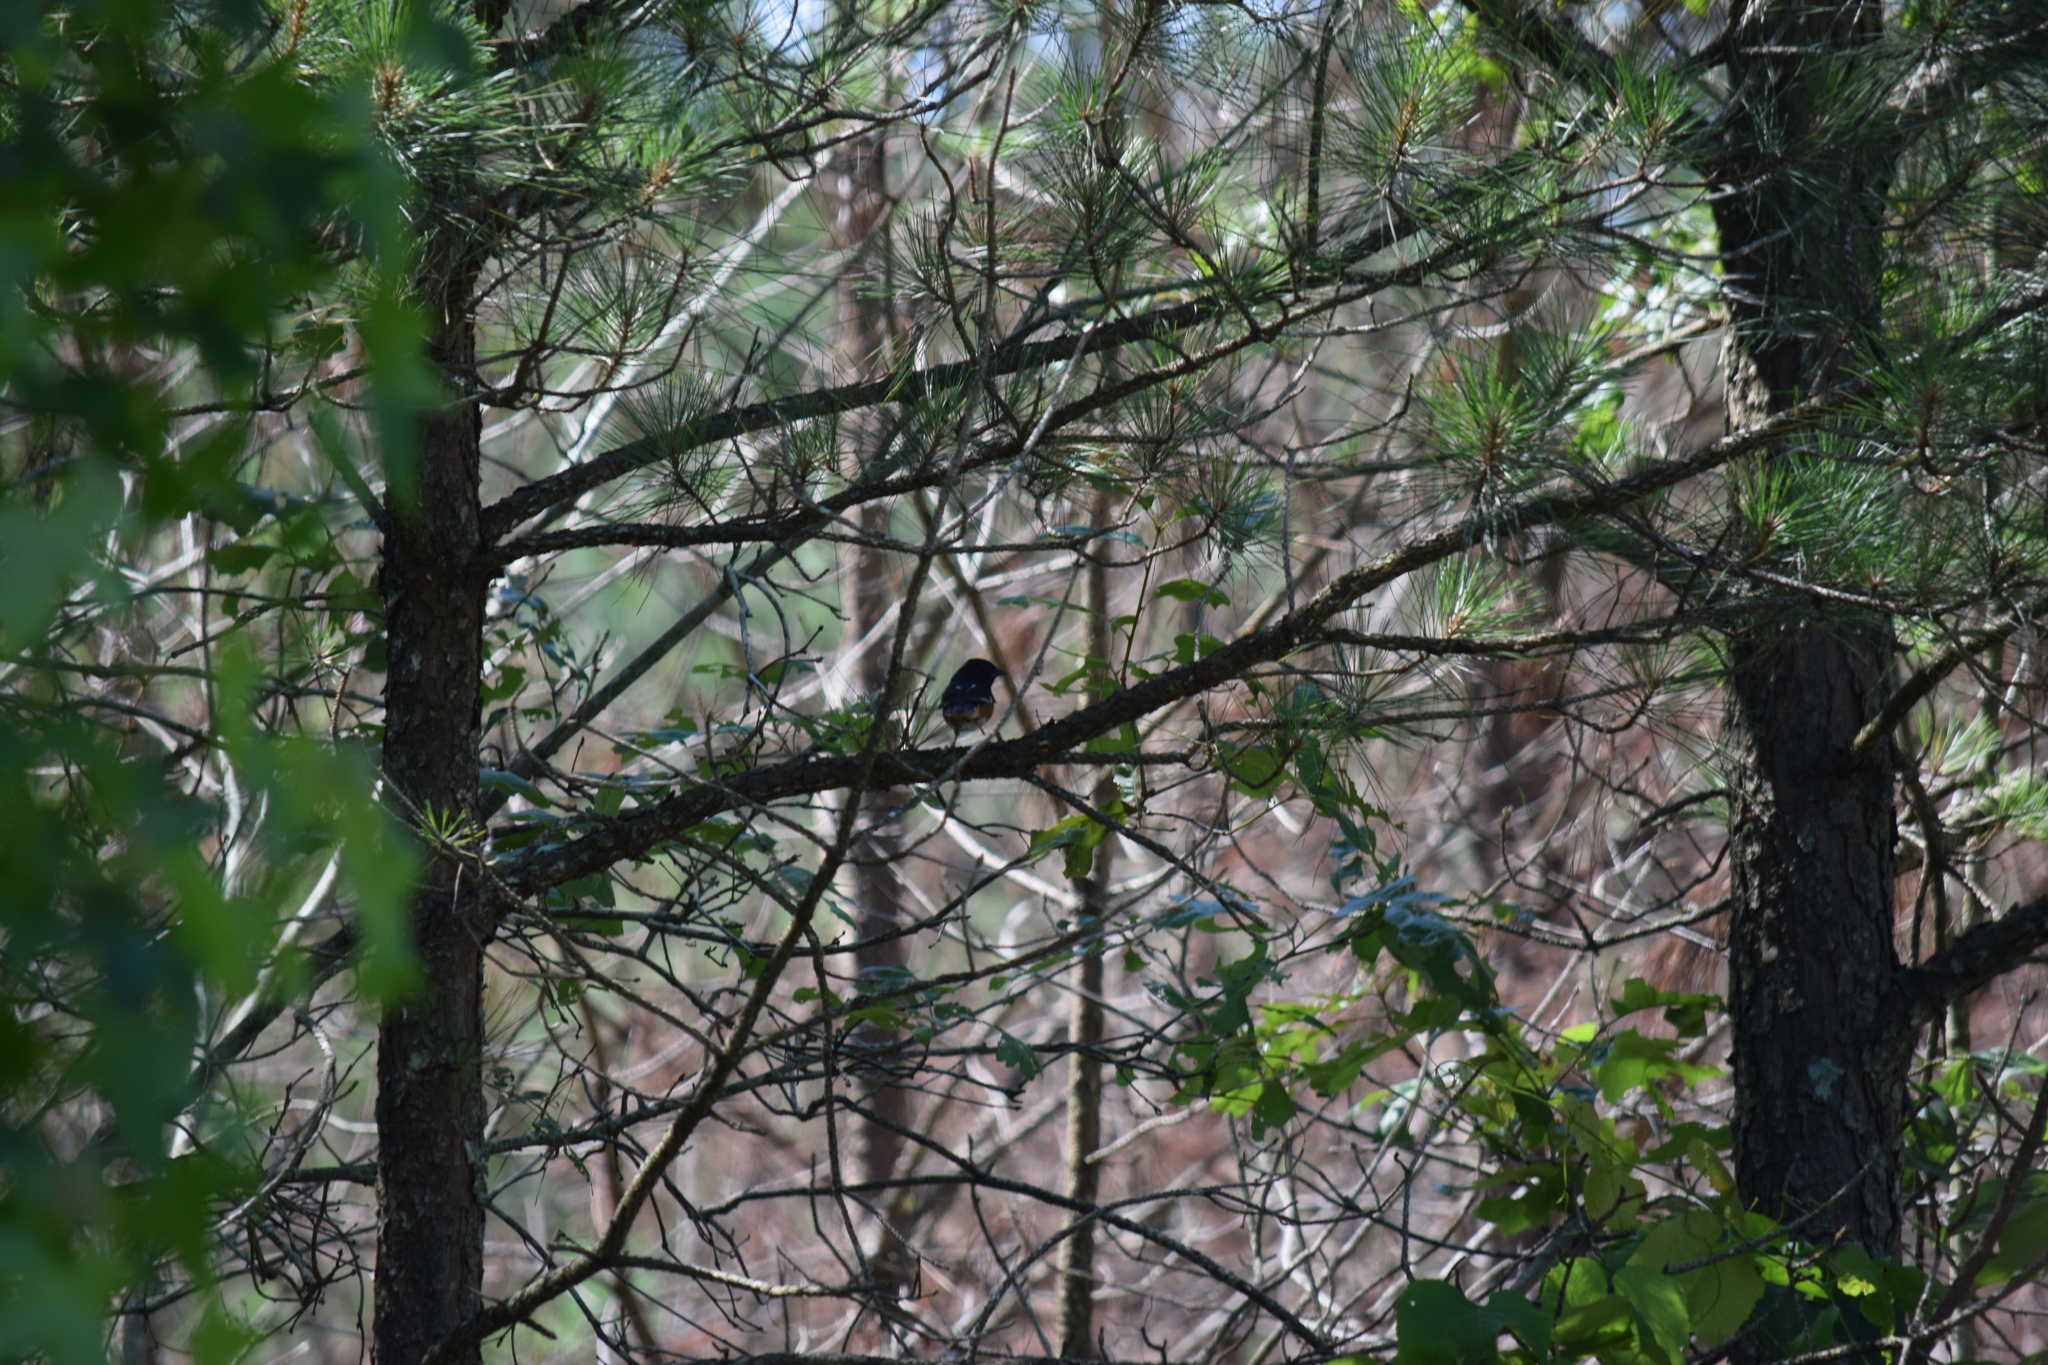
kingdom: Animalia
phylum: Chordata
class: Aves
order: Passeriformes
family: Passerellidae
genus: Pipilo
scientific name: Pipilo erythrophthalmus
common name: Eastern towhee
